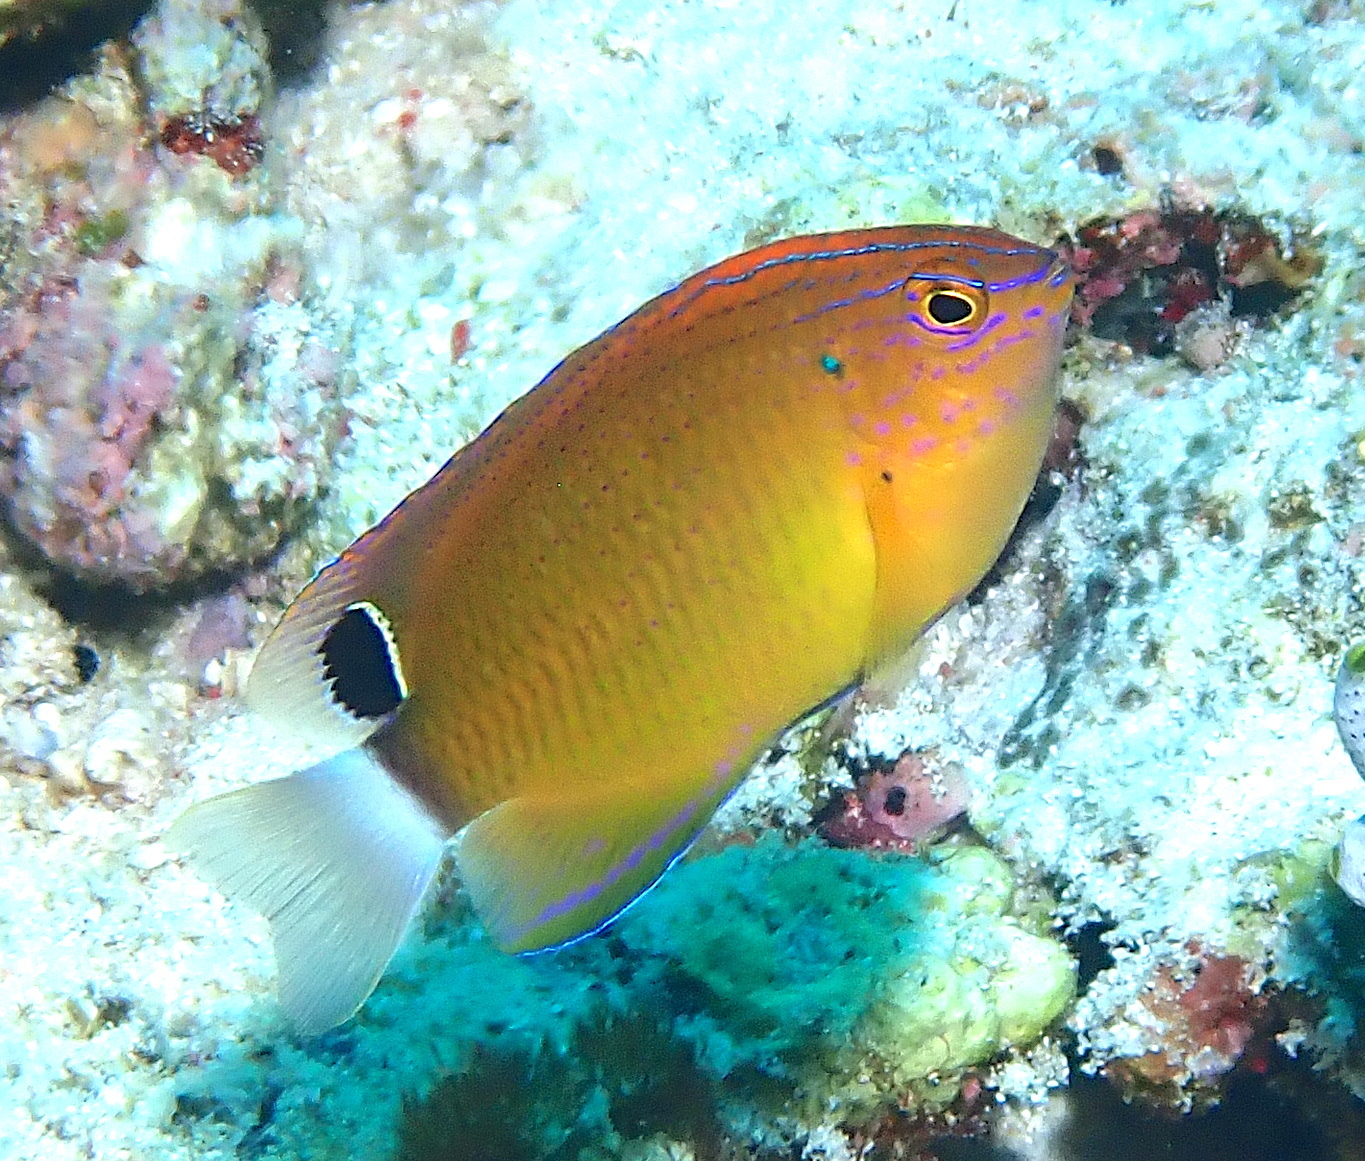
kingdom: Animalia
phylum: Chordata
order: Perciformes
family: Pomacentridae
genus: Pomacentrus
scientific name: Pomacentrus bankanensis
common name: Speckled damsel
